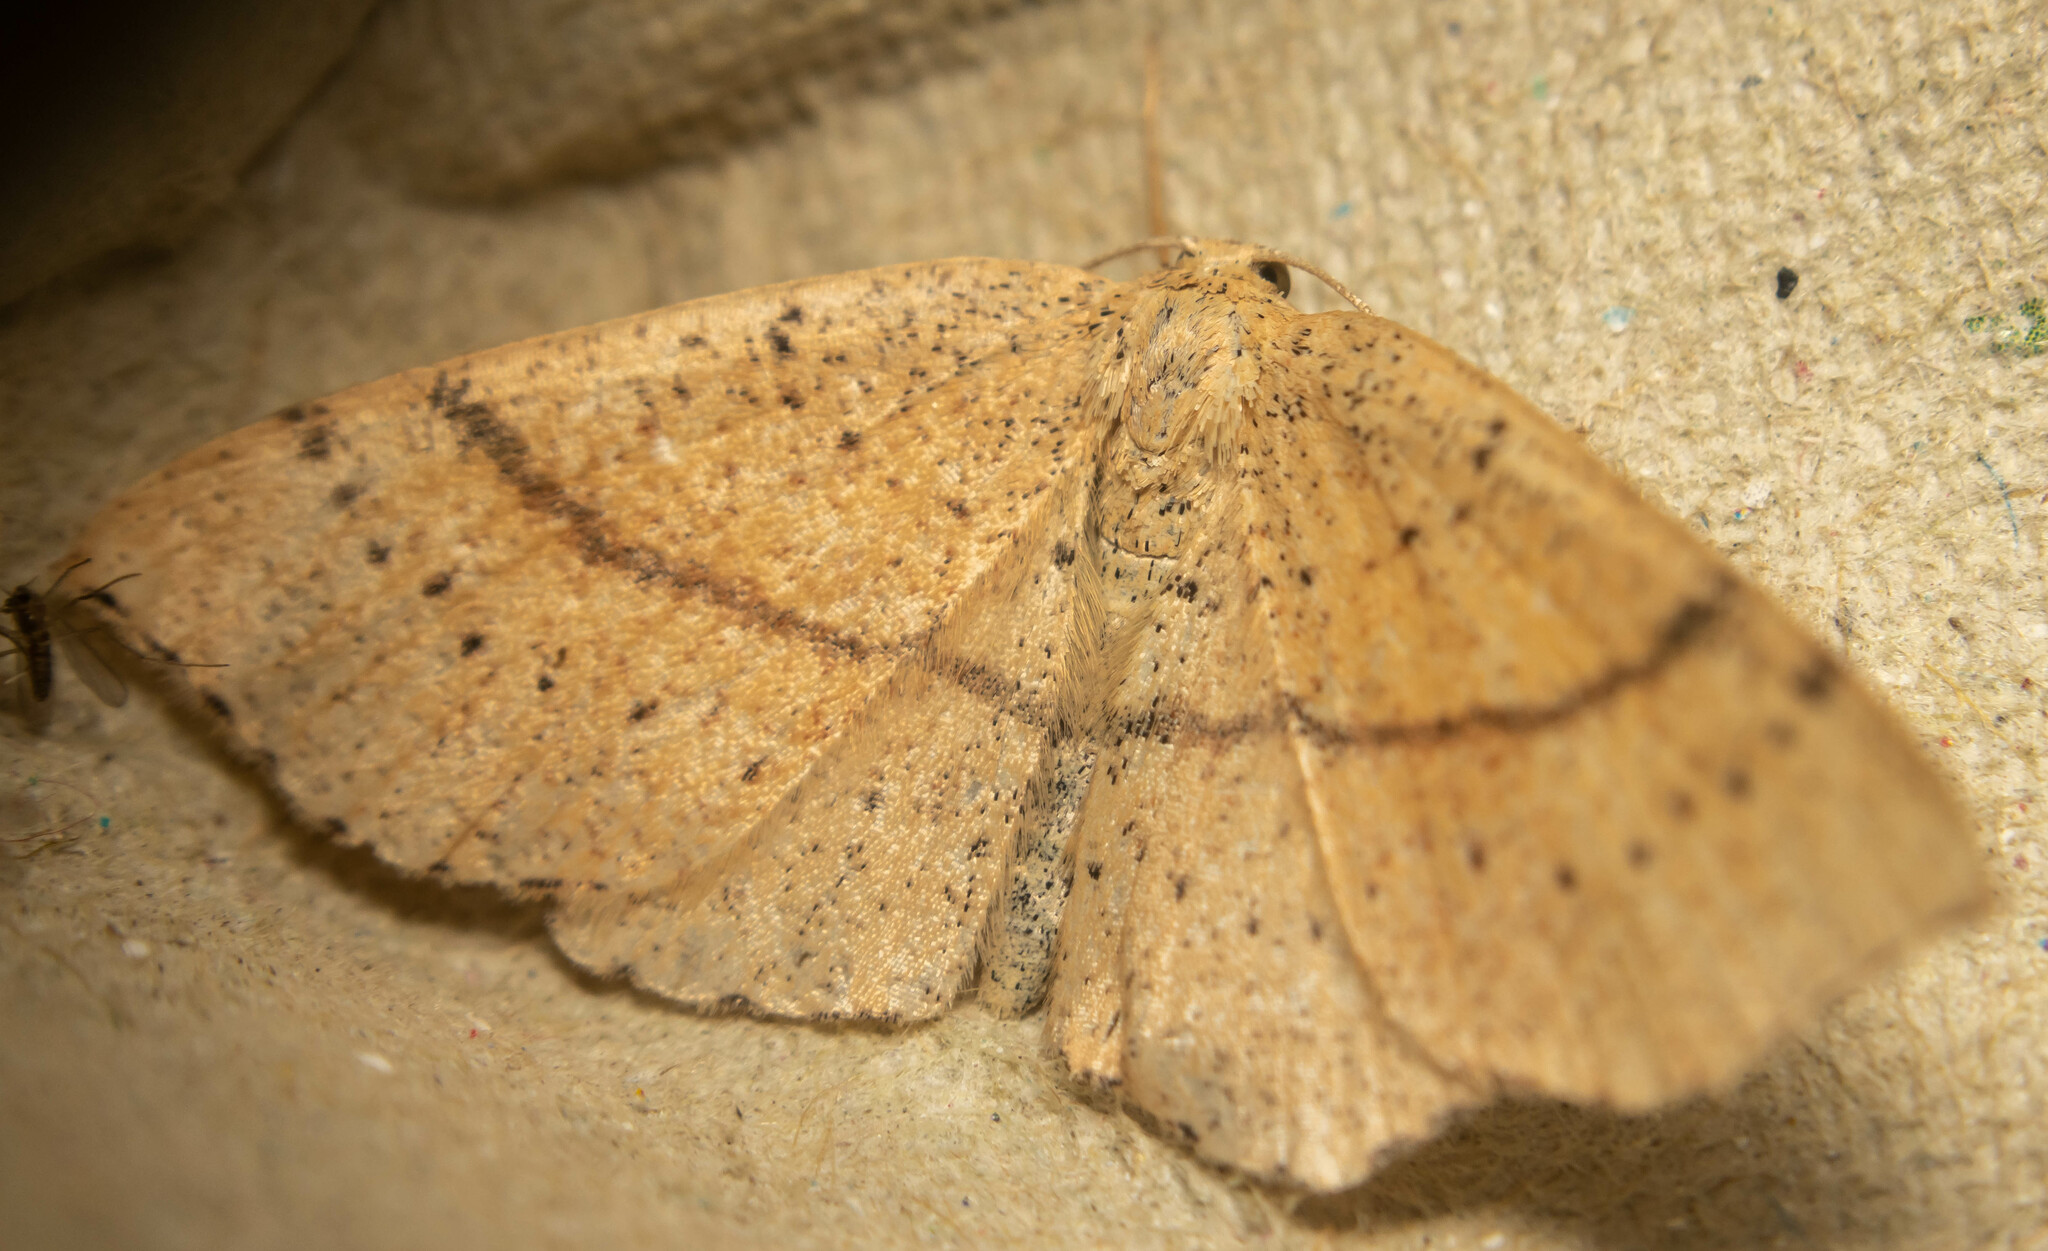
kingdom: Animalia
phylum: Arthropoda
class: Insecta
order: Lepidoptera
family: Geometridae
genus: Cyclophora
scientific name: Cyclophora punctaria
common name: Maiden's blush
